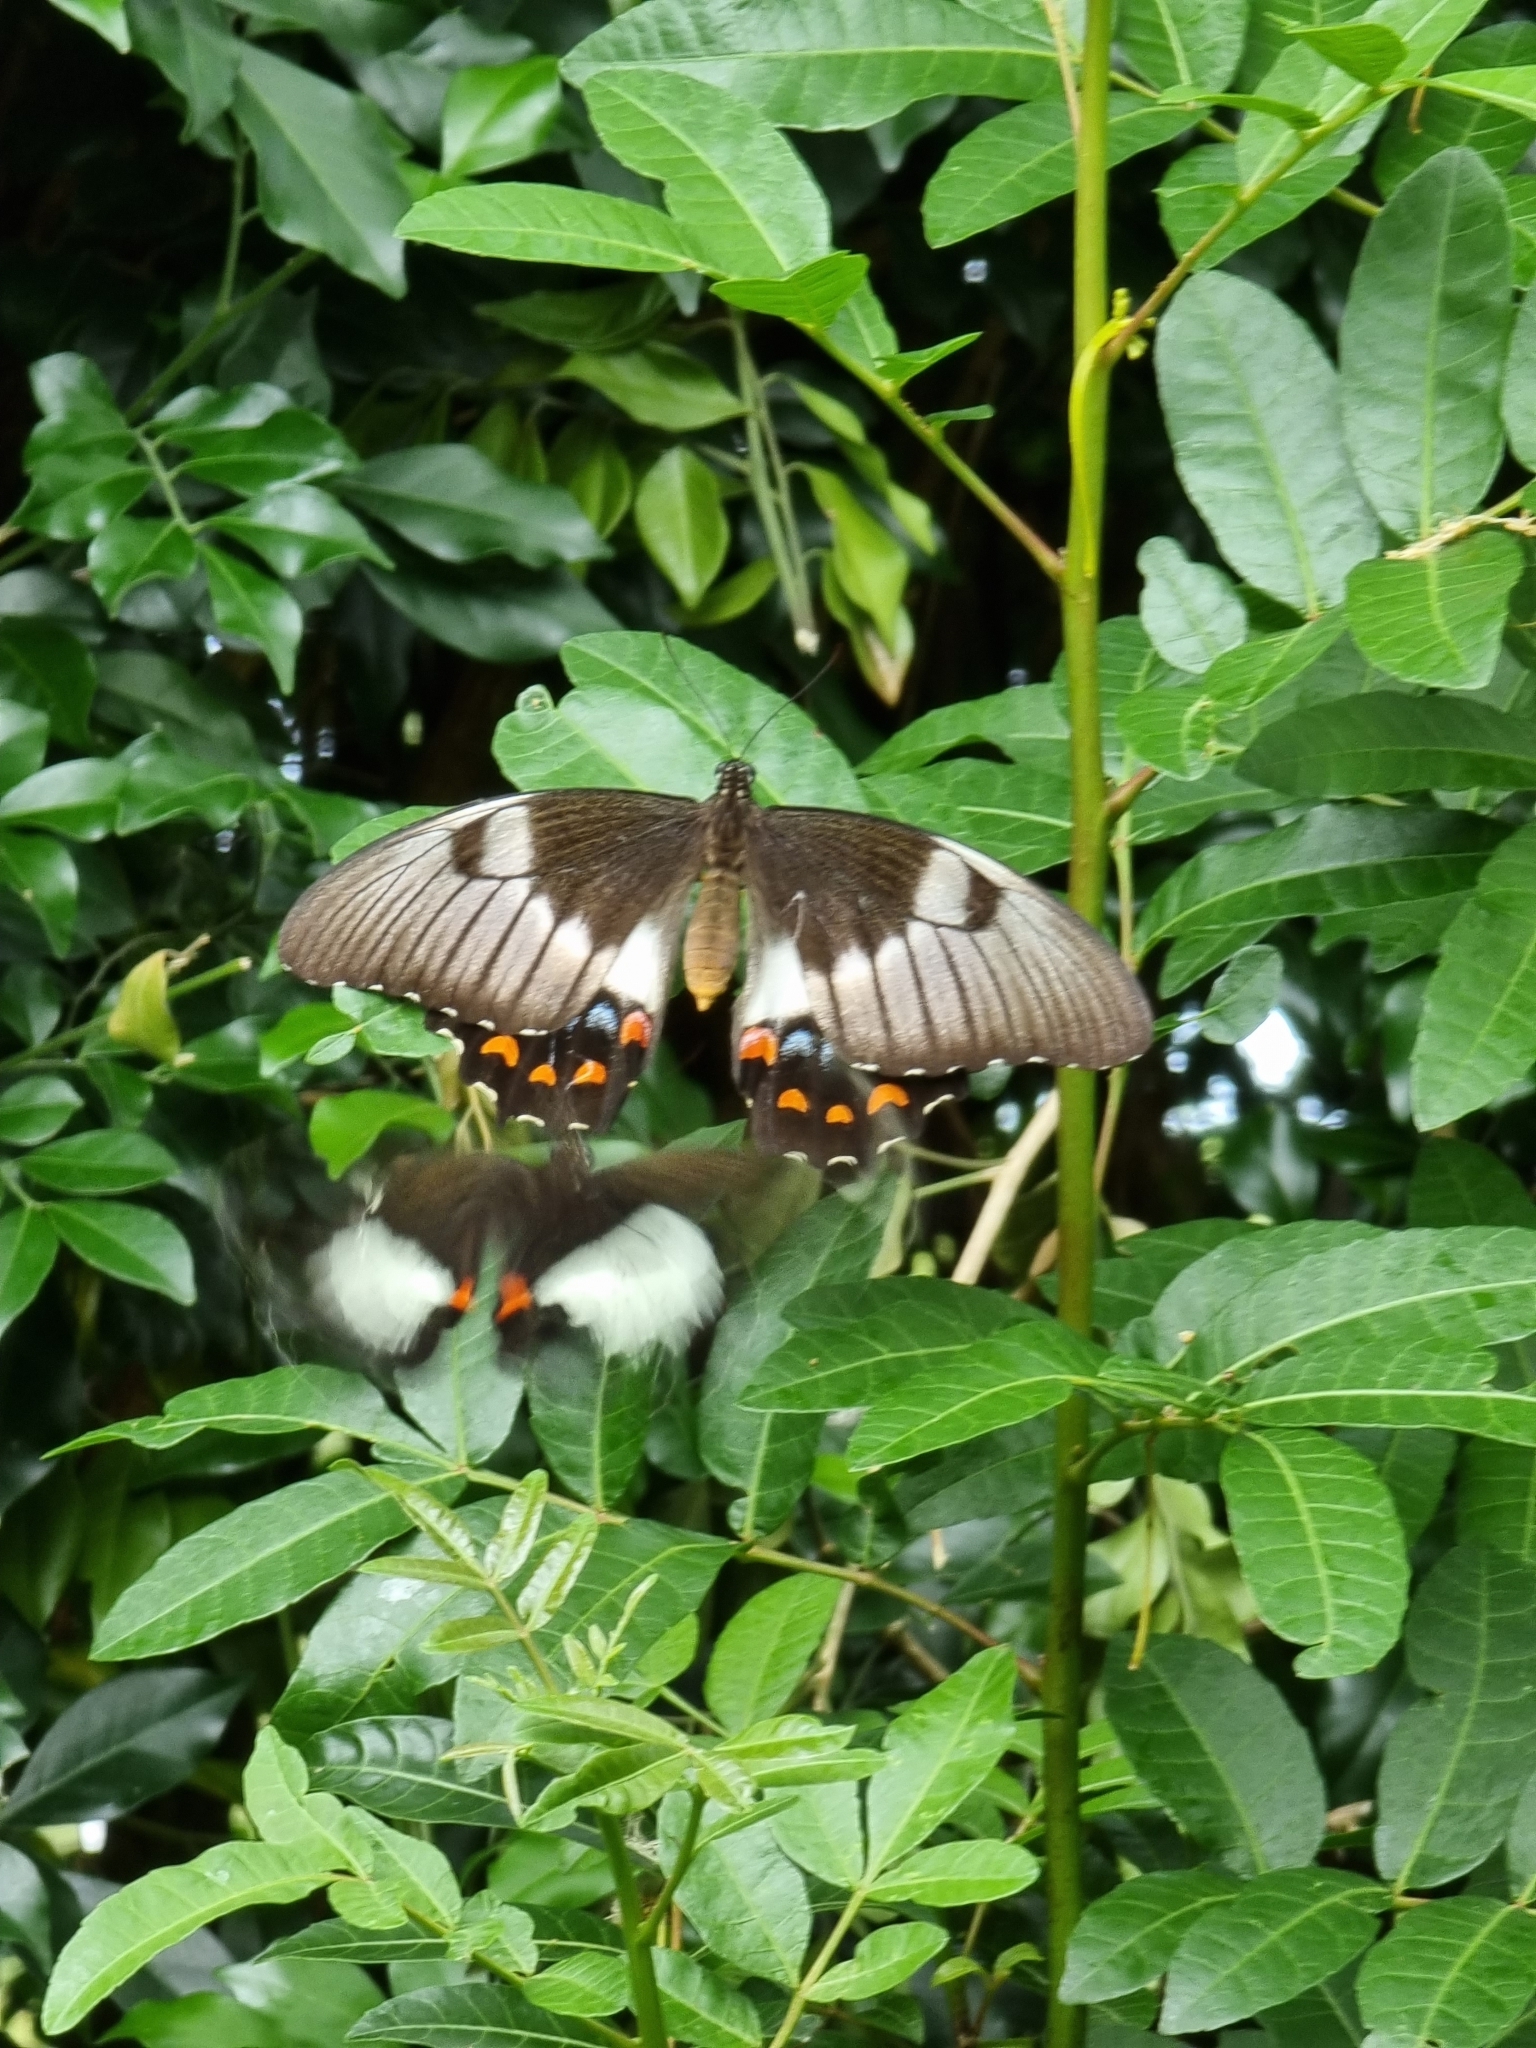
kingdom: Animalia
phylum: Arthropoda
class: Insecta
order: Lepidoptera
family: Papilionidae
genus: Papilio
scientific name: Papilio aegeus
